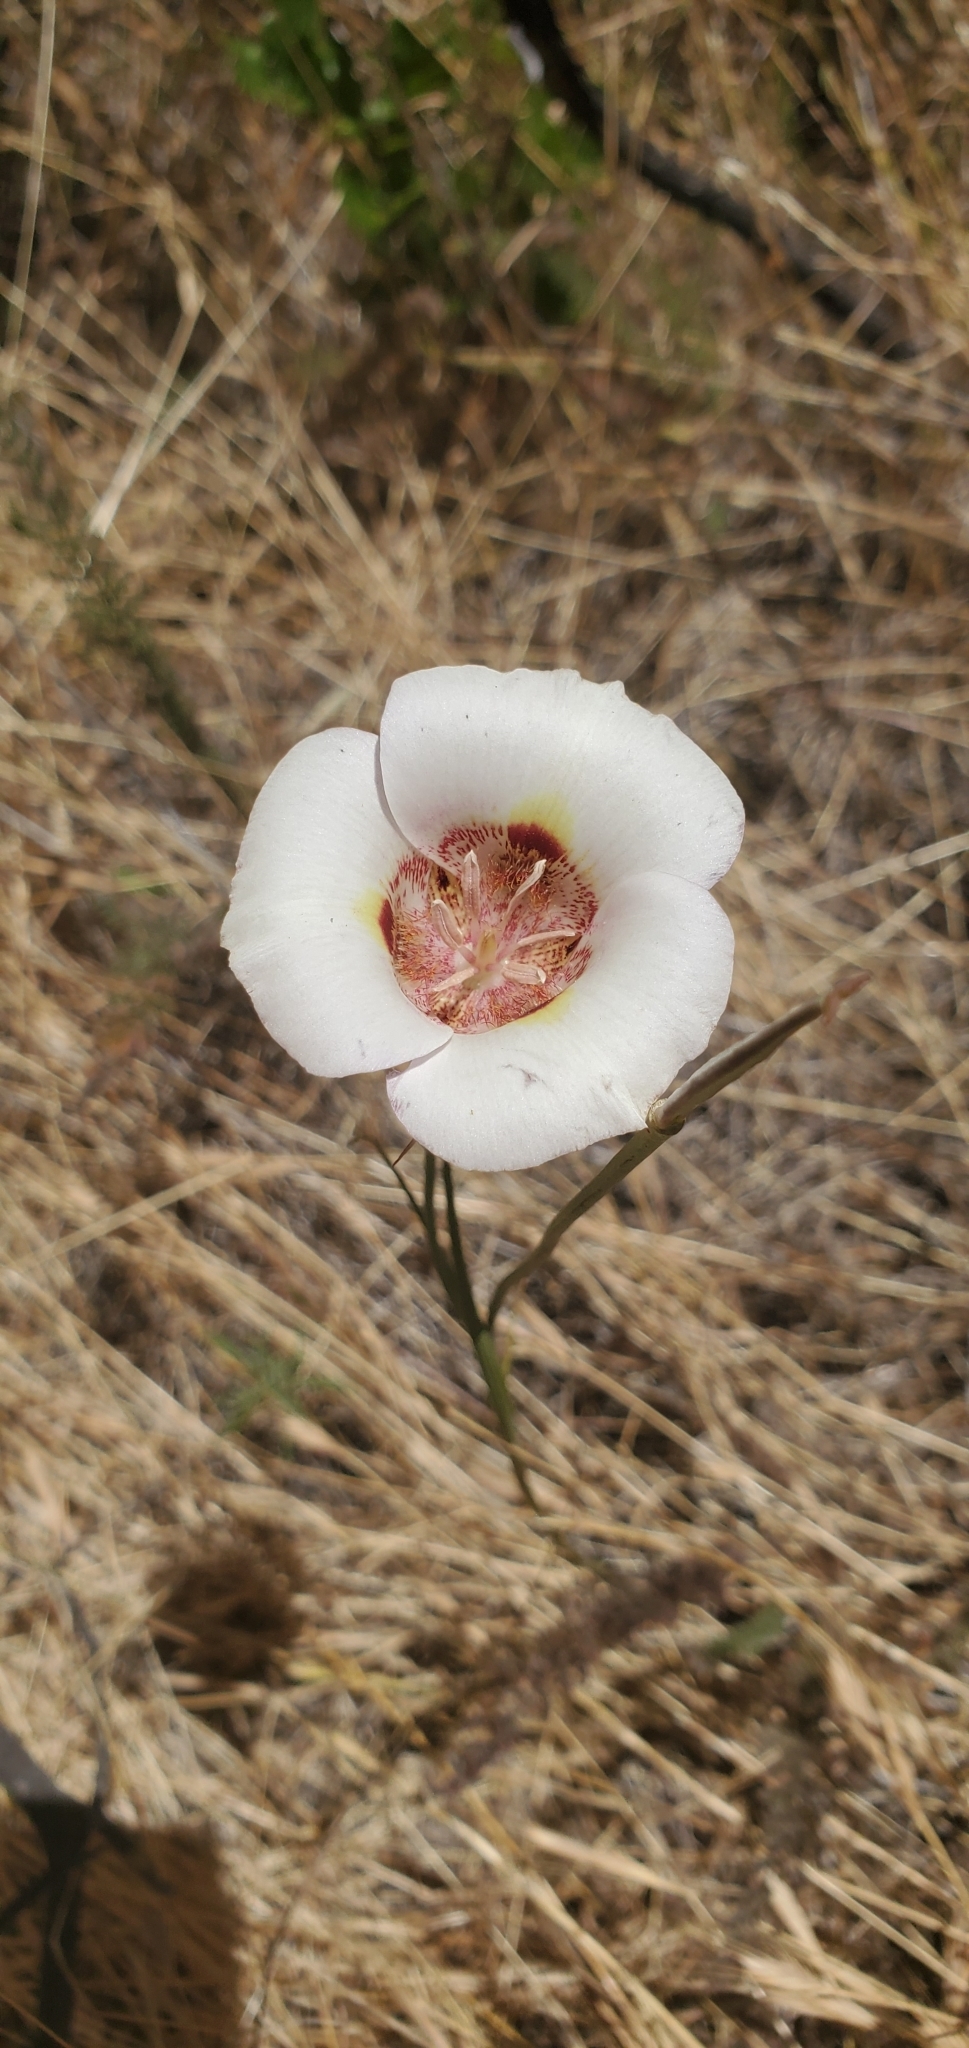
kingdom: Plantae
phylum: Tracheophyta
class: Liliopsida
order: Liliales
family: Liliaceae
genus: Calochortus
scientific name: Calochortus argillosus
